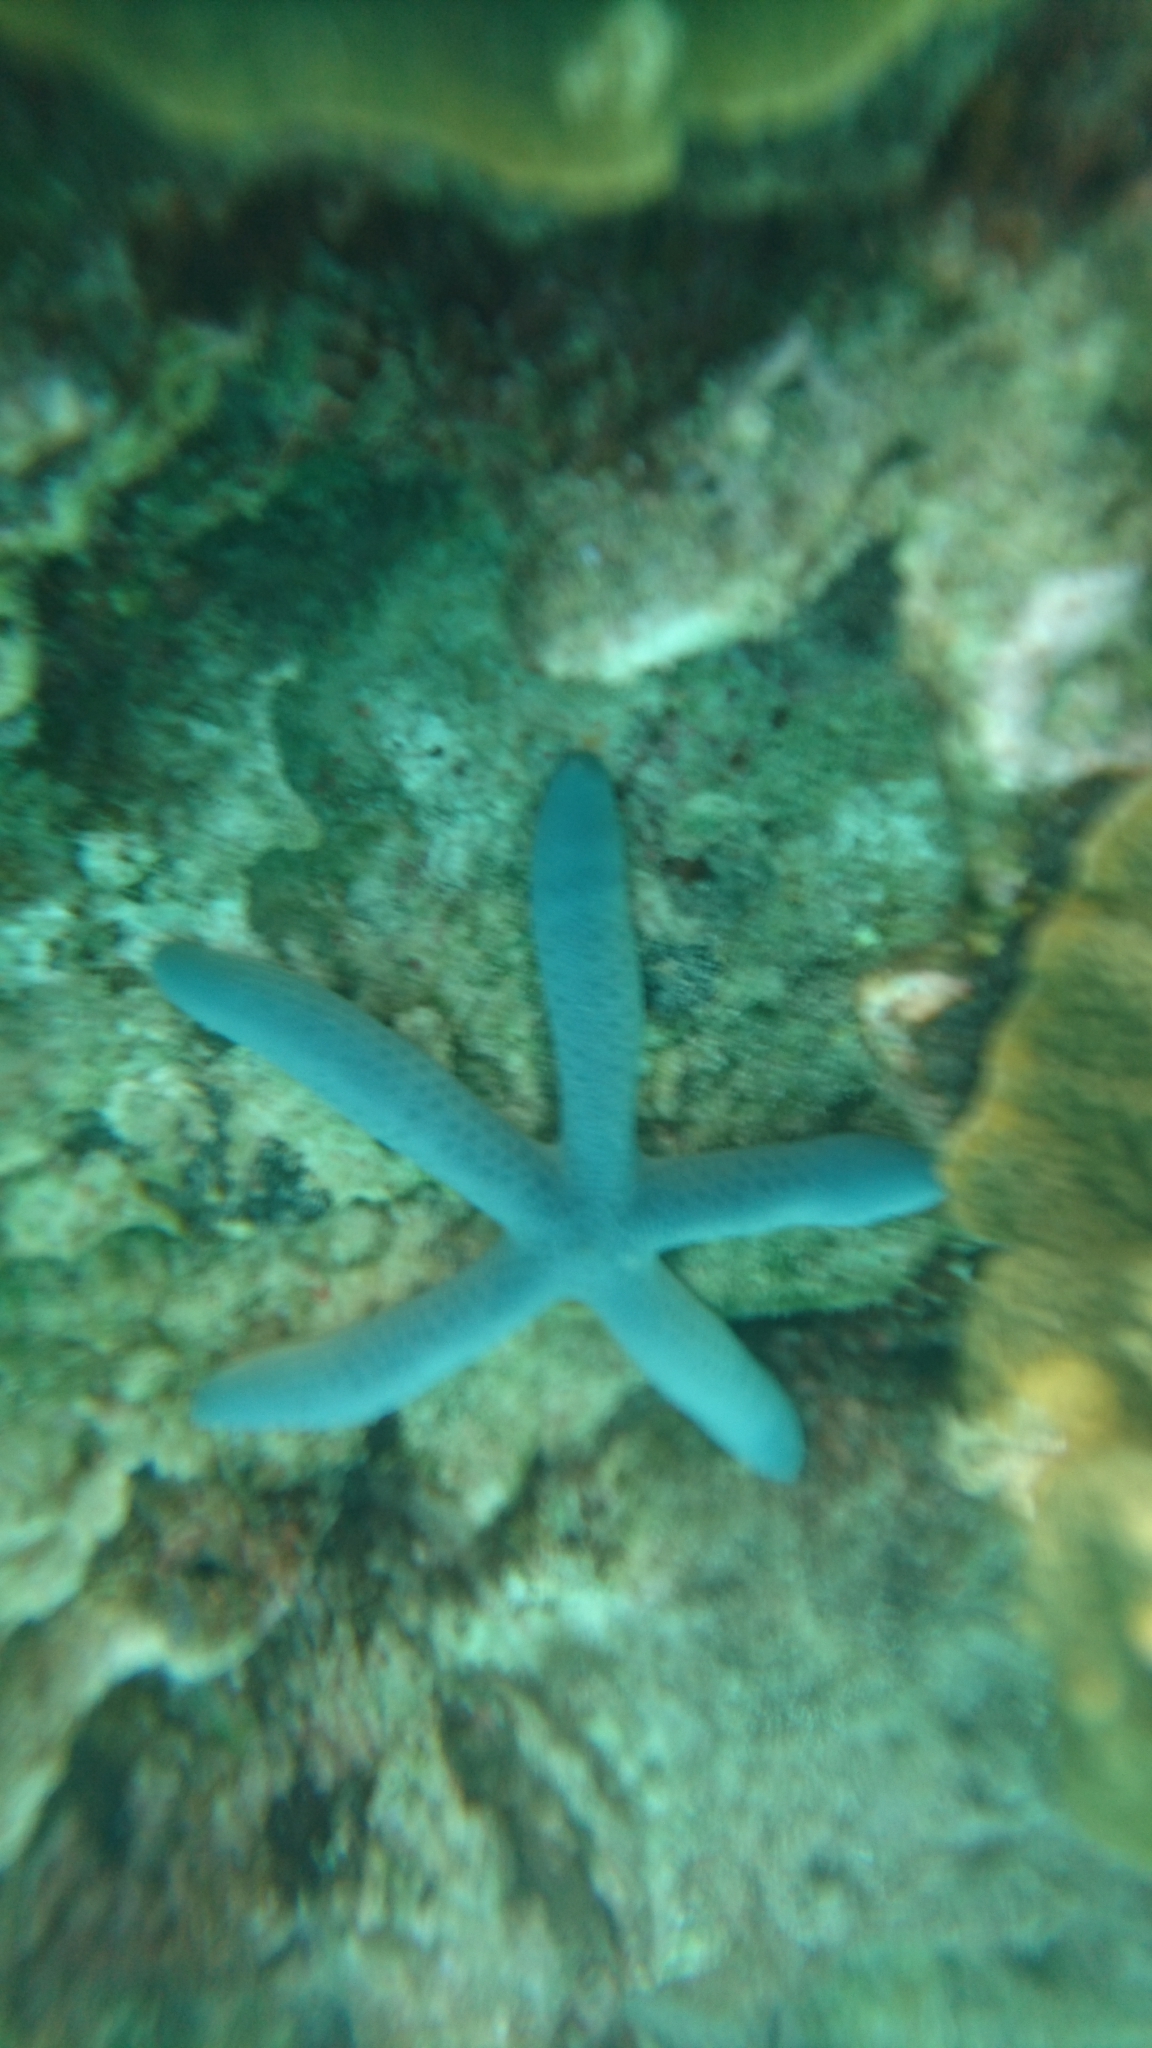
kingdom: Animalia
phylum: Echinodermata
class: Asteroidea
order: Valvatida
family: Ophidiasteridae
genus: Linckia
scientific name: Linckia laevigata
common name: Azure sea star
